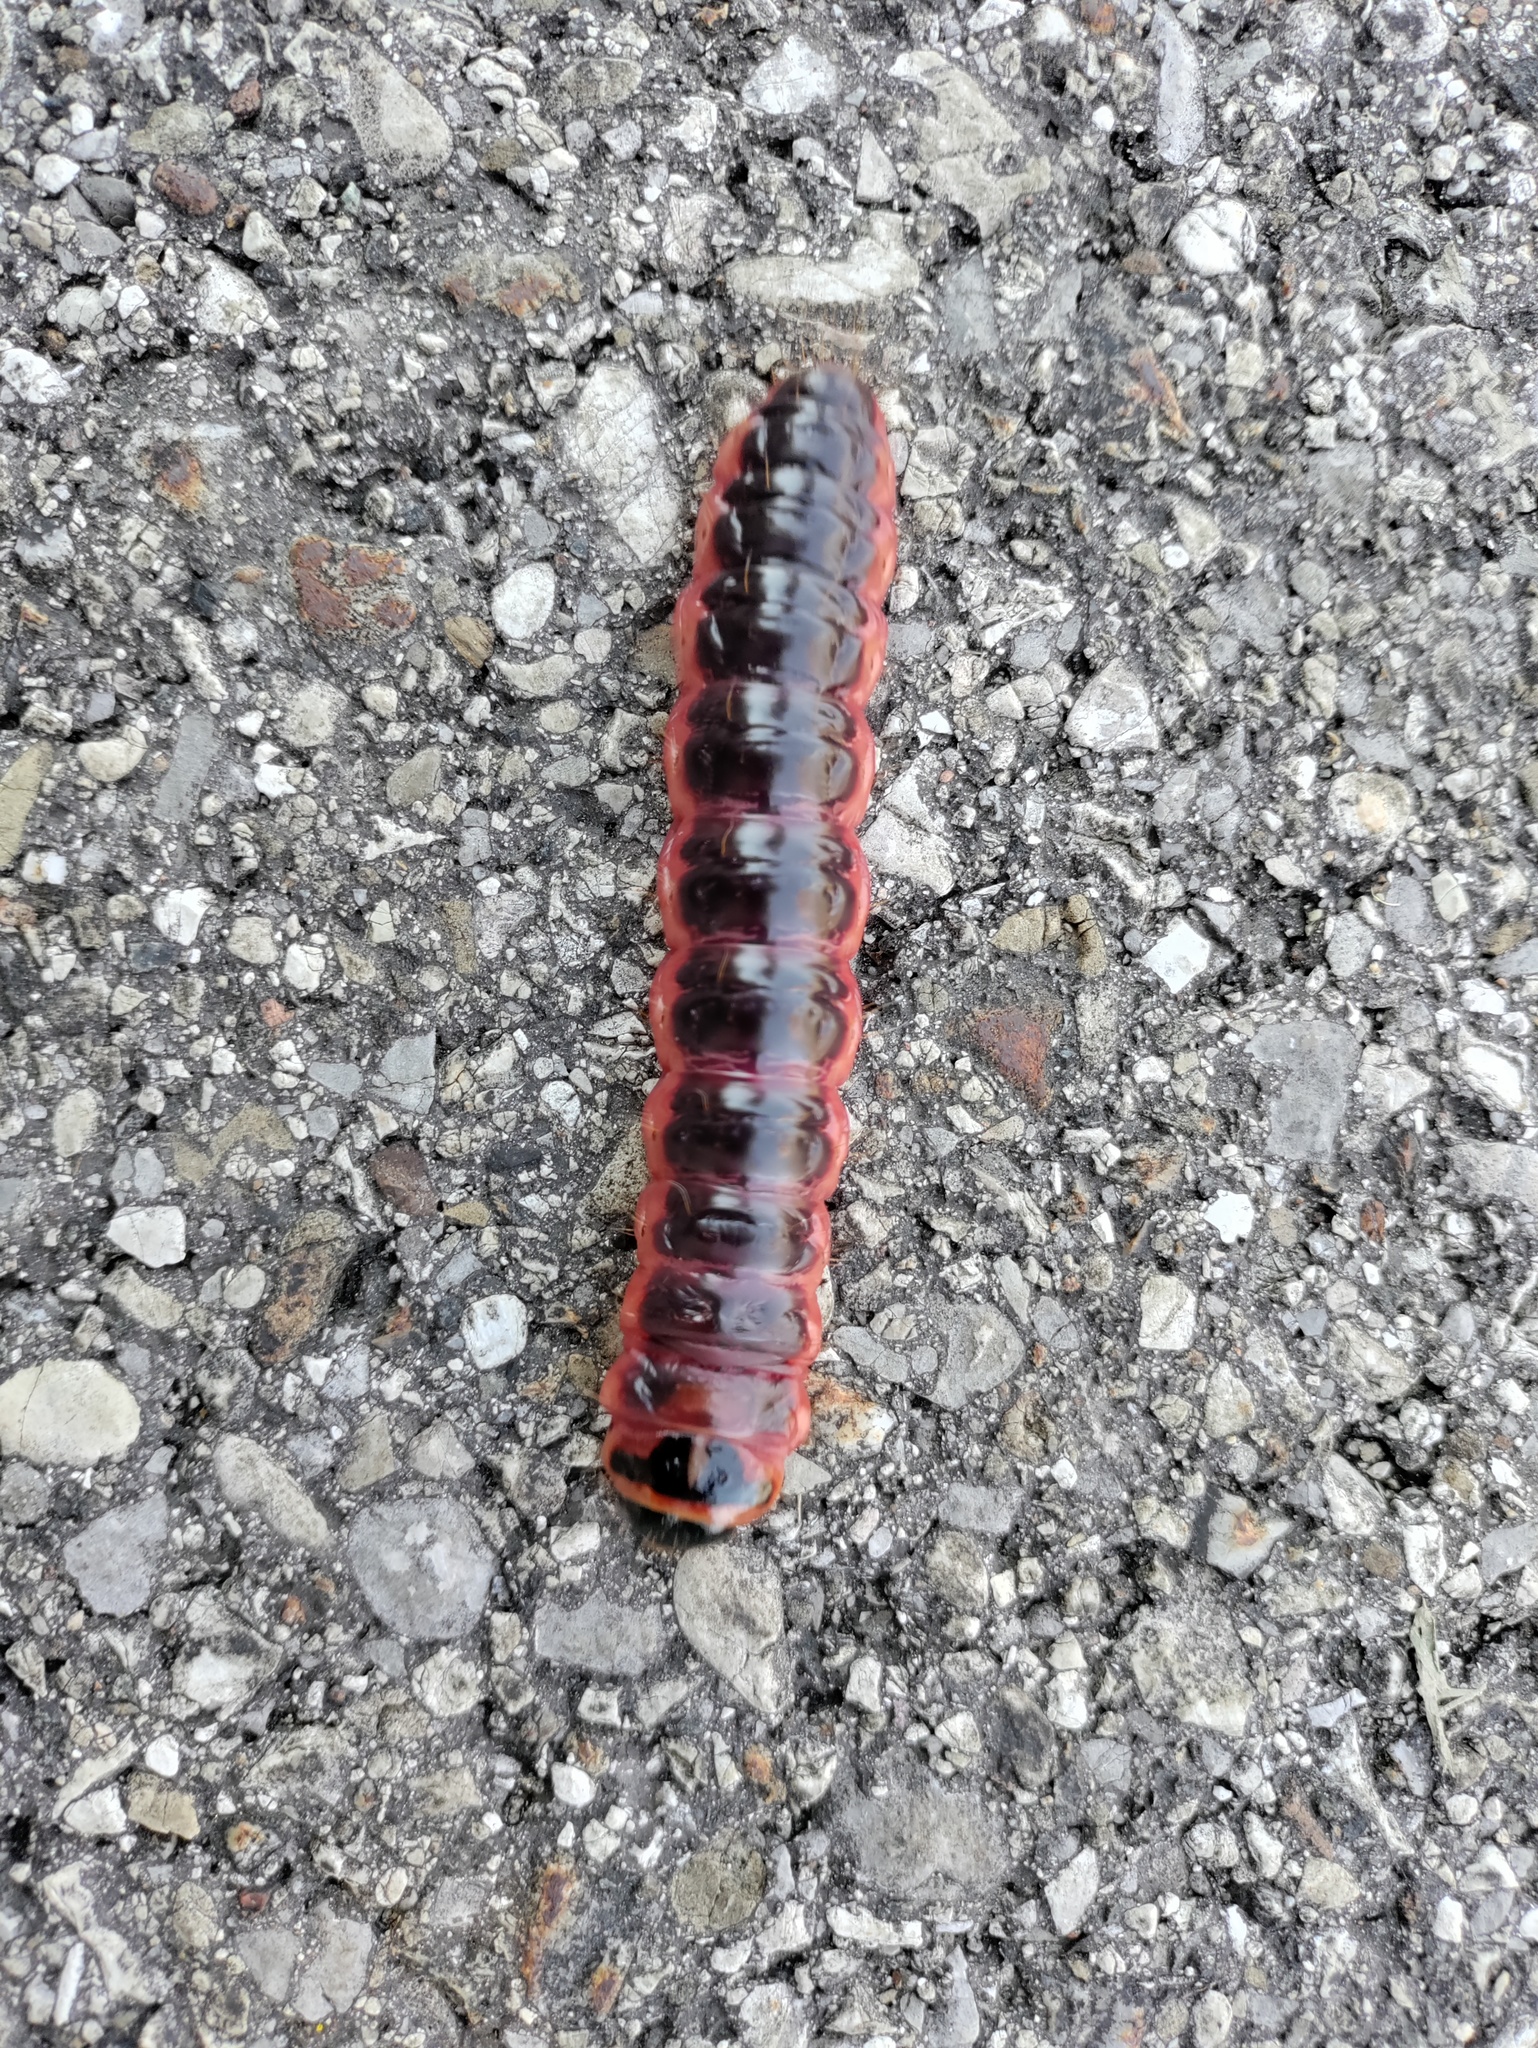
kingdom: Animalia
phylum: Arthropoda
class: Insecta
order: Lepidoptera
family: Cossidae
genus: Cossus
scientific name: Cossus cossus
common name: Goat moth
